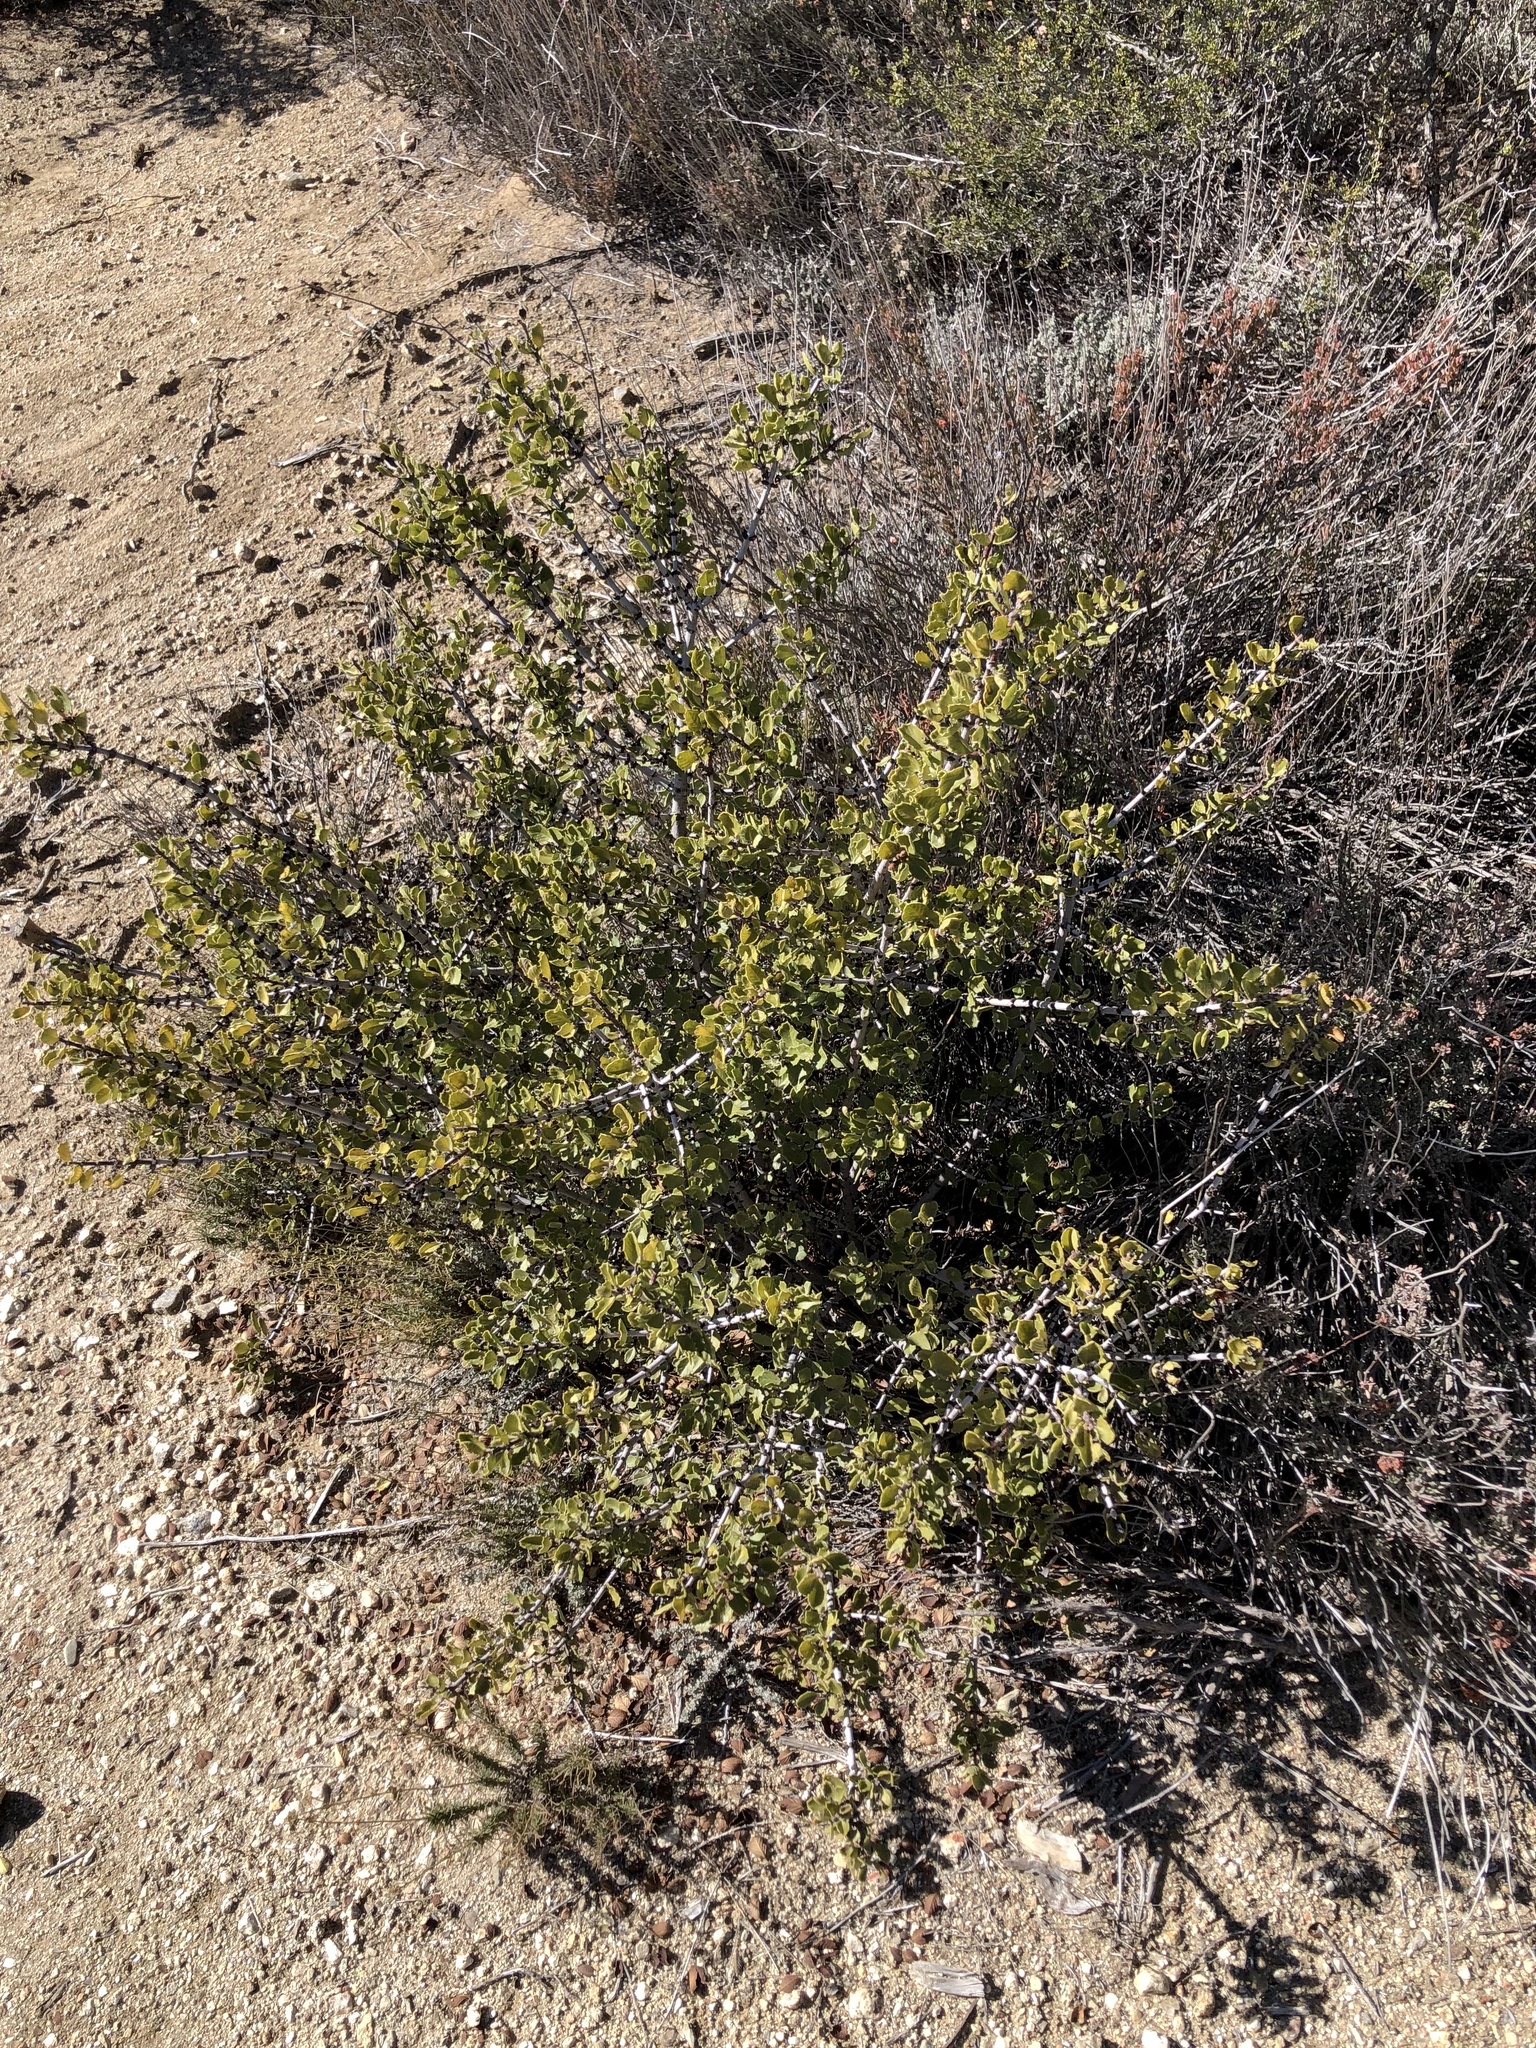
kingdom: Plantae
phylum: Tracheophyta
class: Magnoliopsida
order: Rosales
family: Rhamnaceae
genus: Ceanothus
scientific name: Ceanothus perplexans
